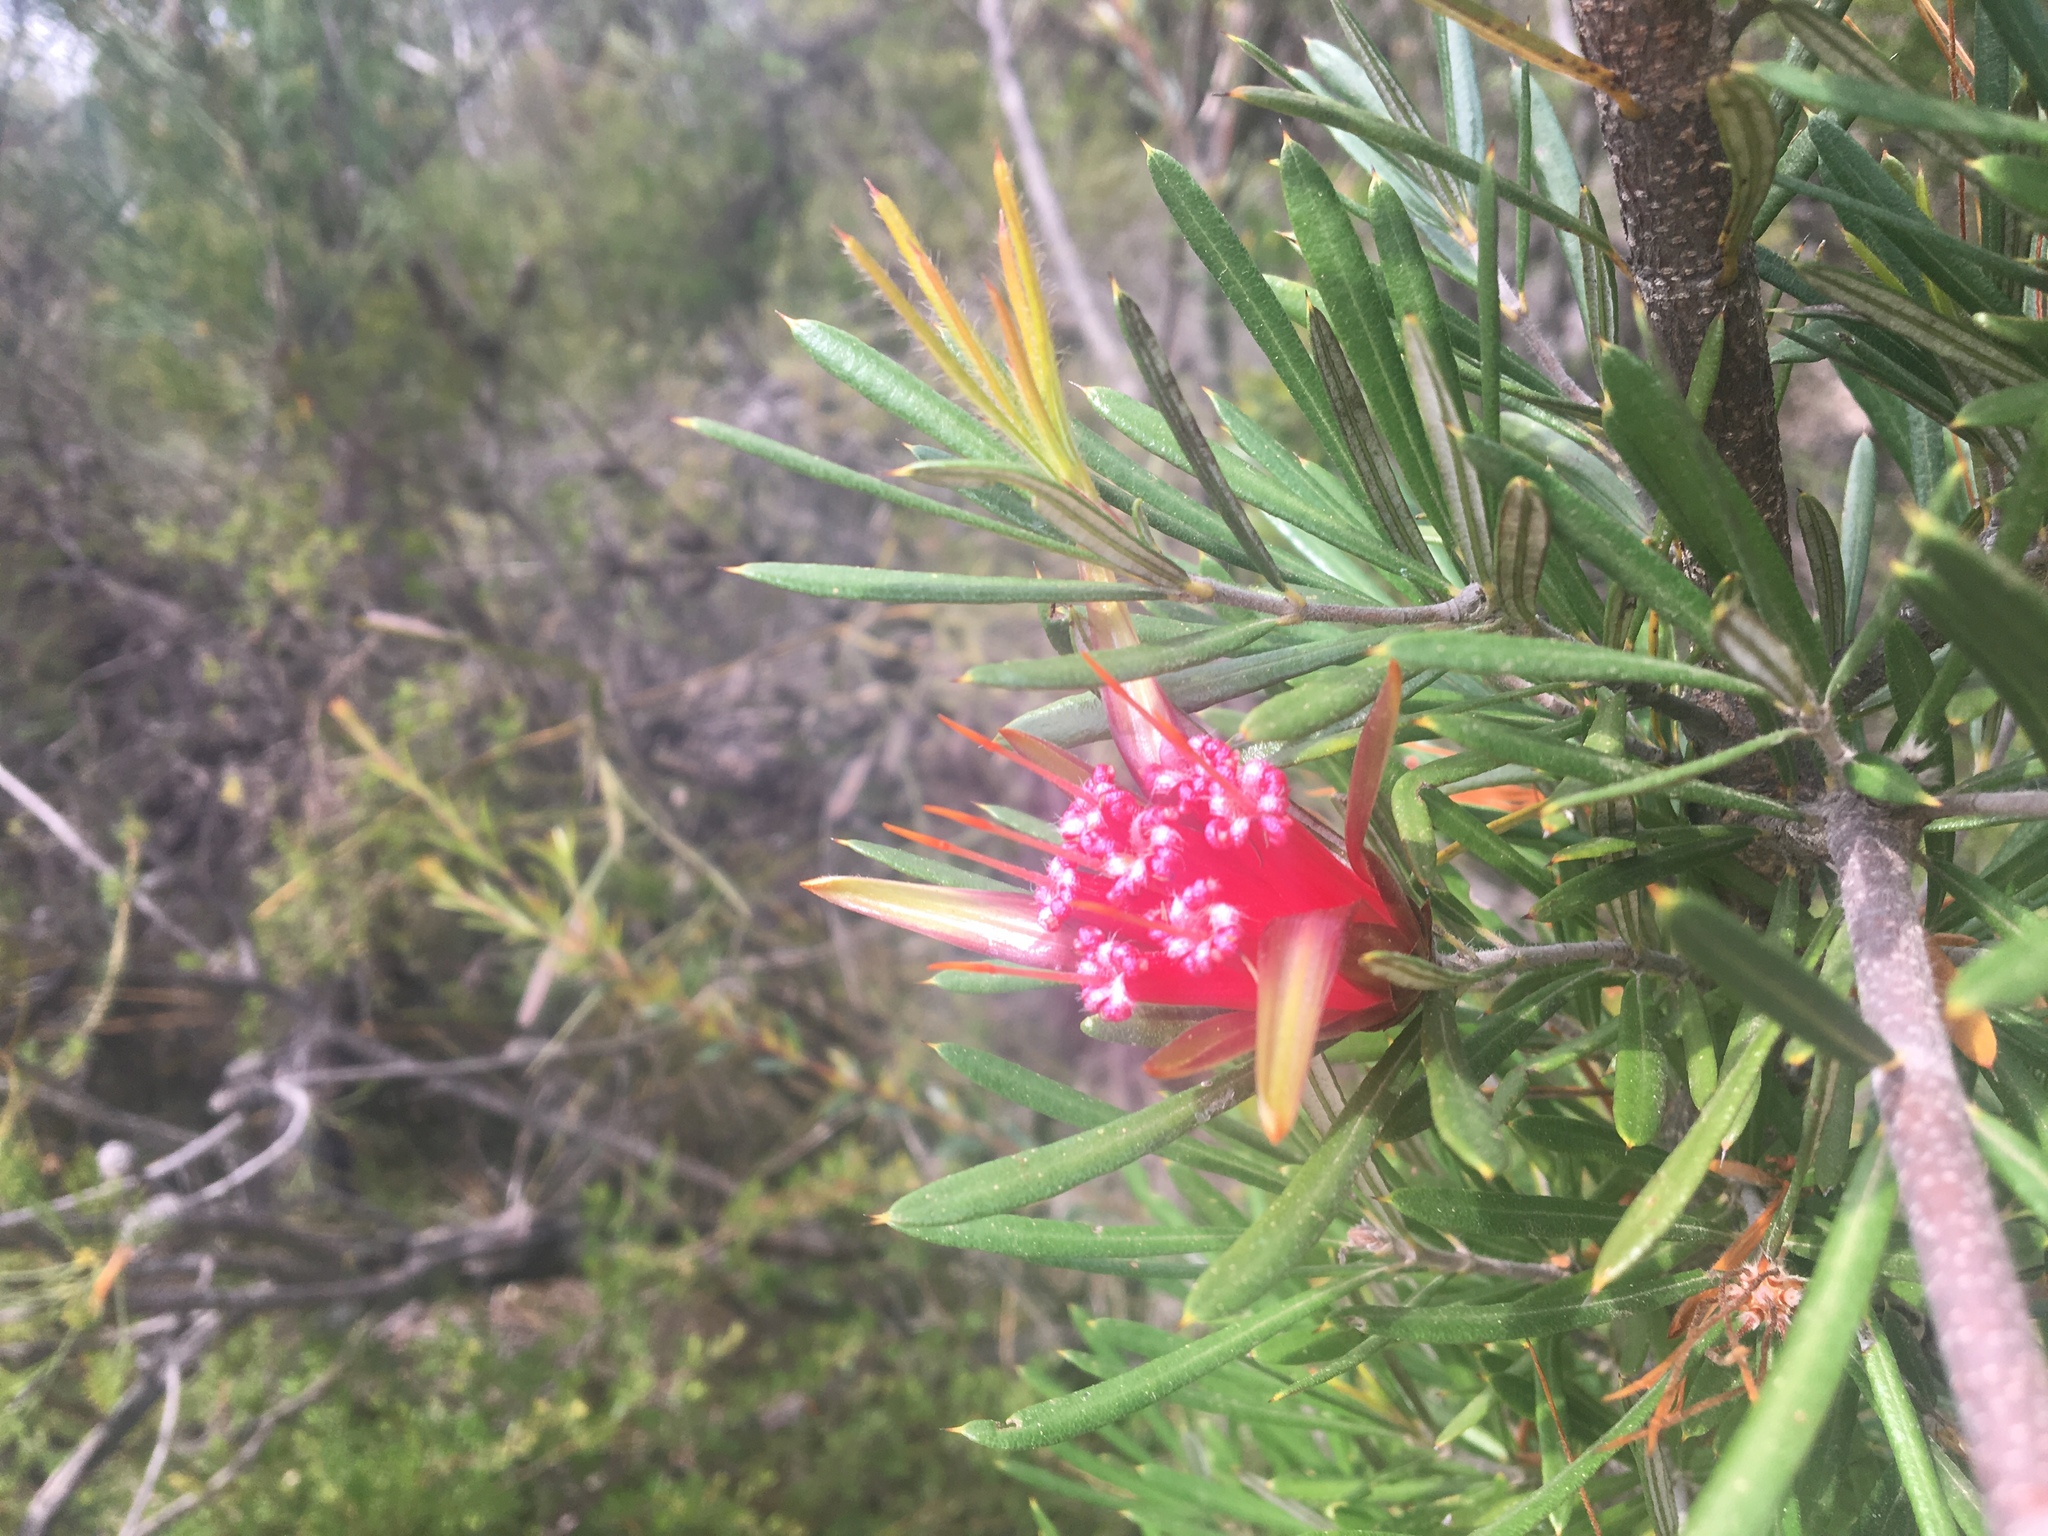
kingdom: Plantae
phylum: Tracheophyta
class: Magnoliopsida
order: Proteales
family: Proteaceae
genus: Lambertia
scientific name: Lambertia formosa
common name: Mountain-devil
